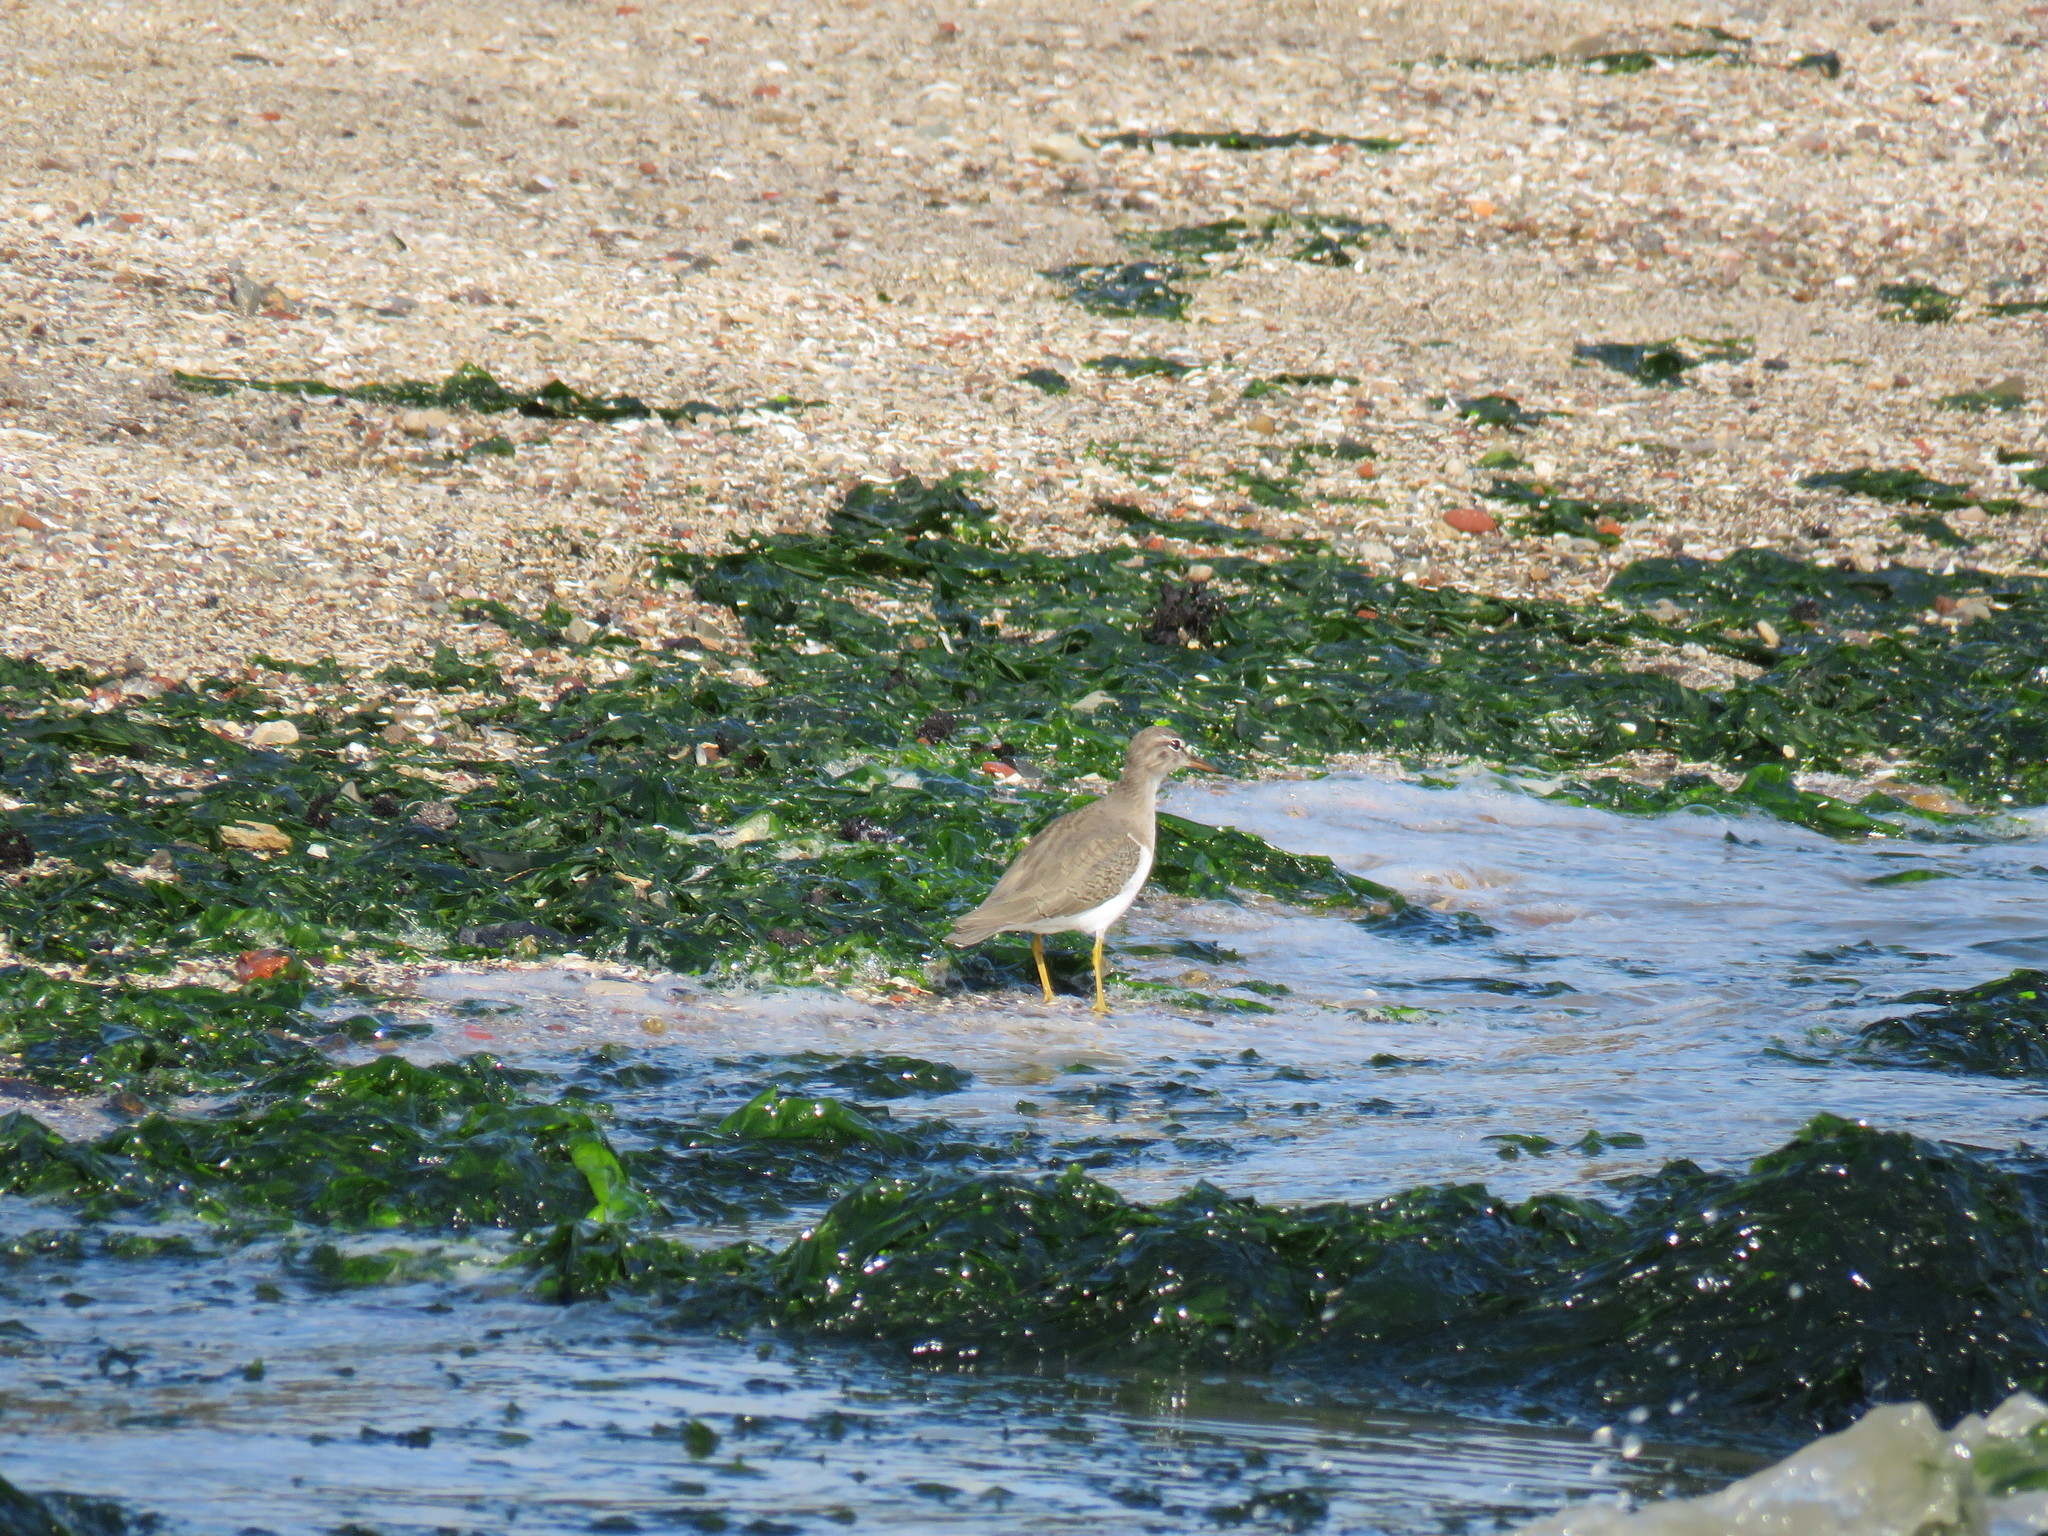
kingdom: Animalia
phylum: Chordata
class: Aves
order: Charadriiformes
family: Scolopacidae
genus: Actitis
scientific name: Actitis macularius
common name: Spotted sandpiper
